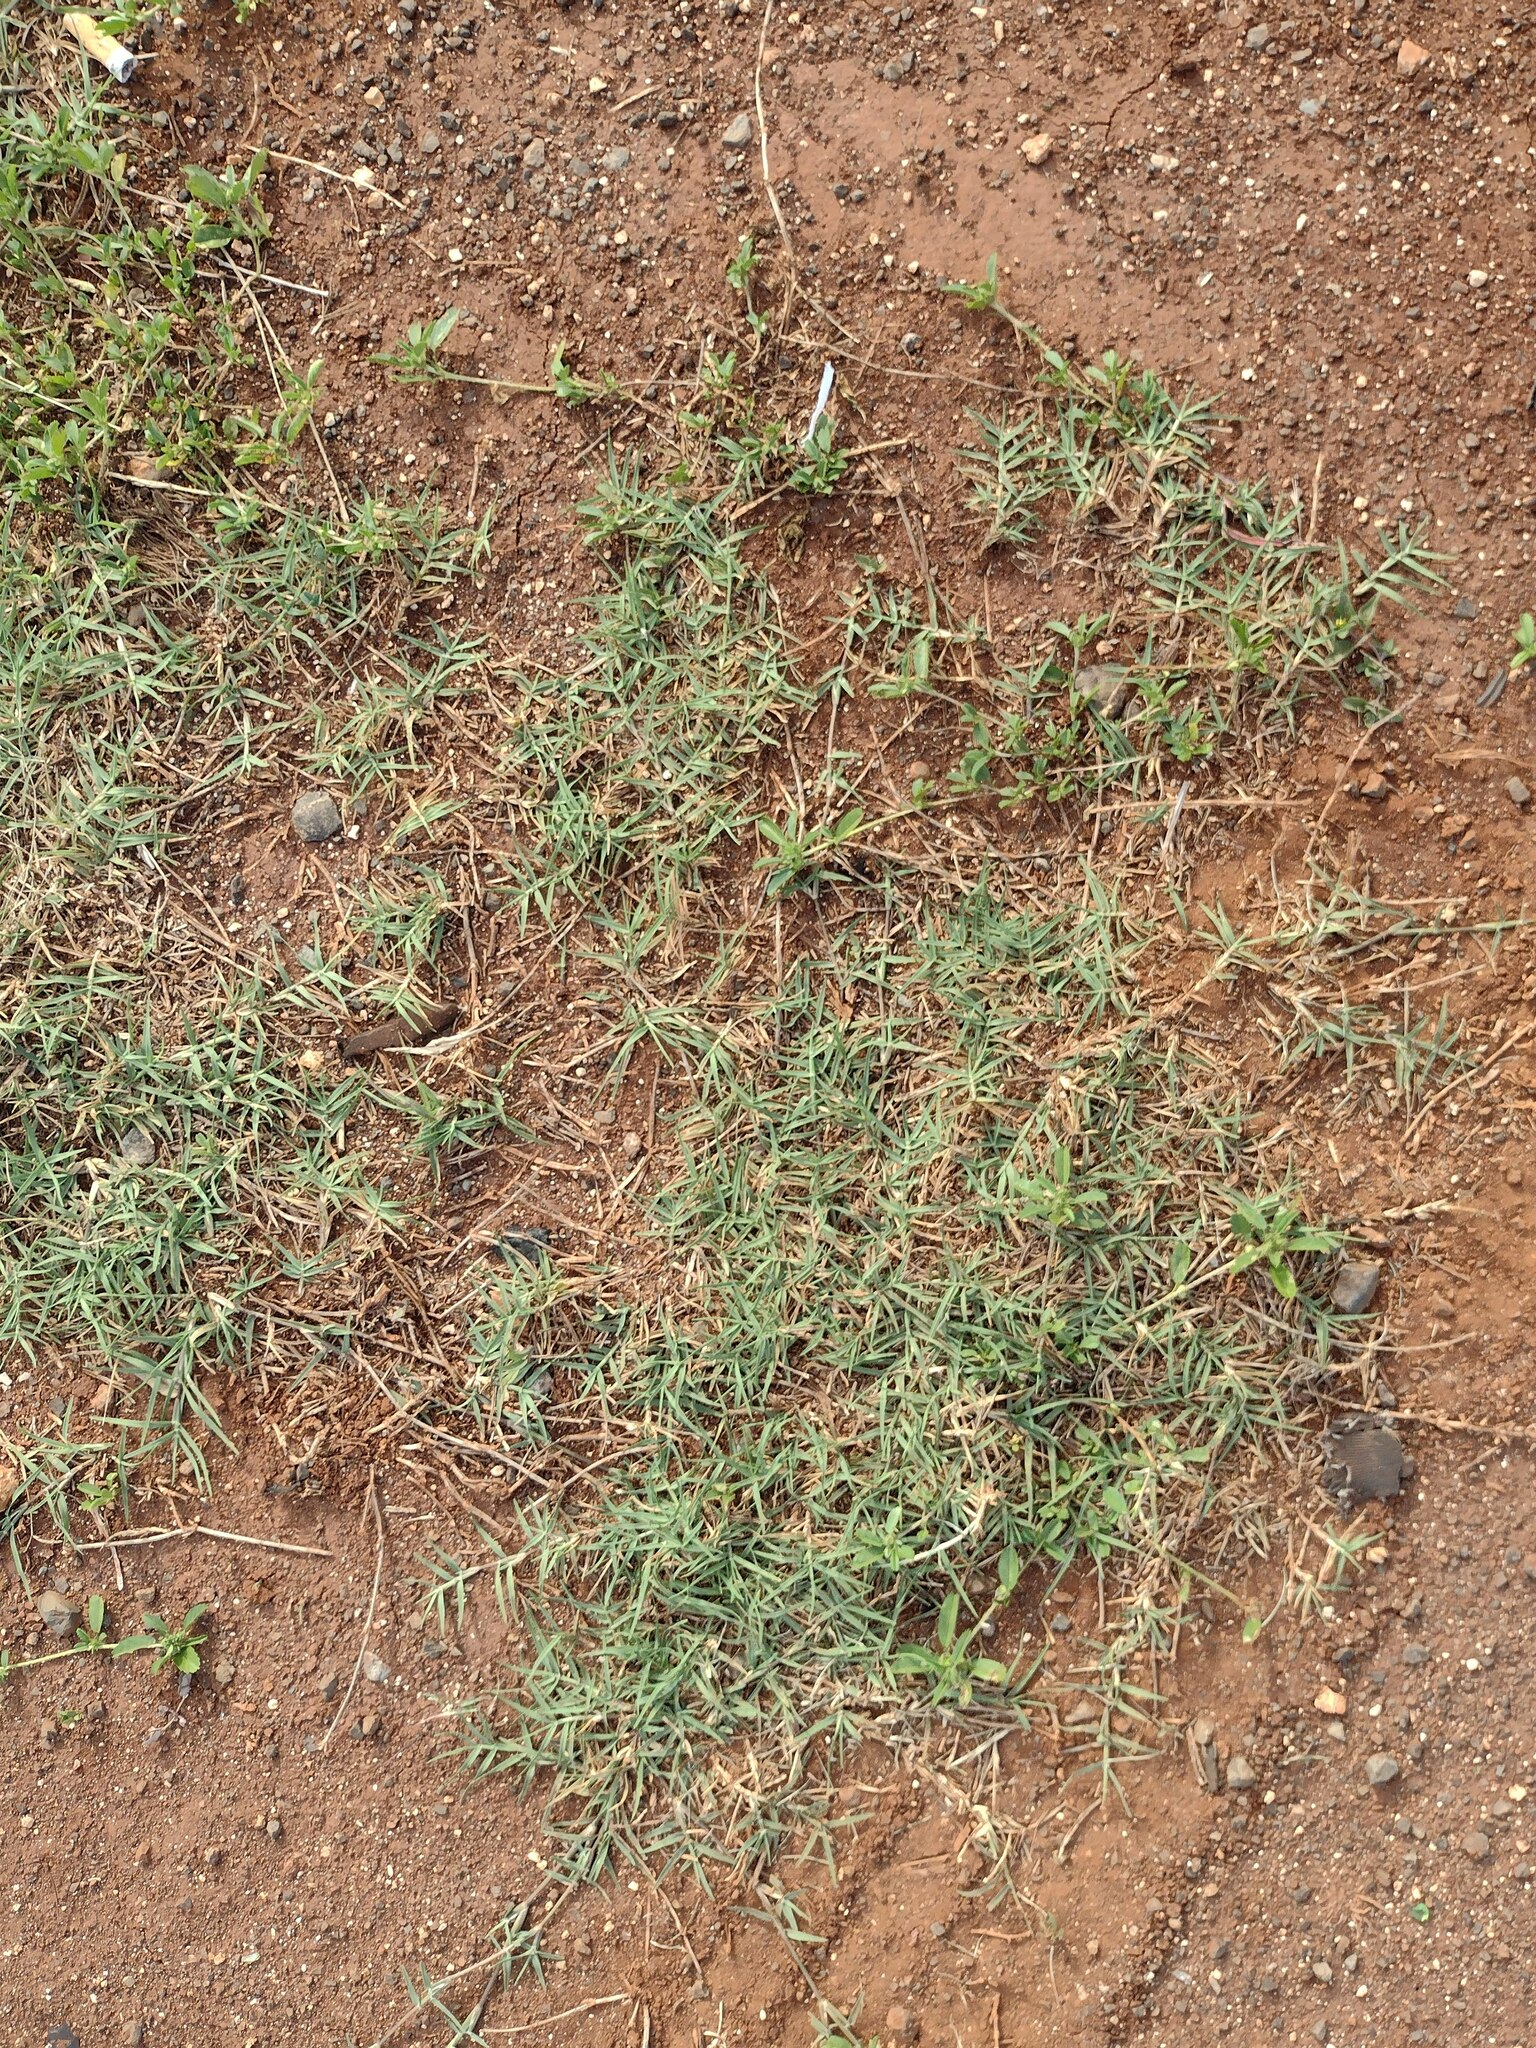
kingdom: Plantae
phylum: Tracheophyta
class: Liliopsida
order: Poales
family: Poaceae
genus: Cynodon
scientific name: Cynodon dactylon
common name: Bermuda grass
